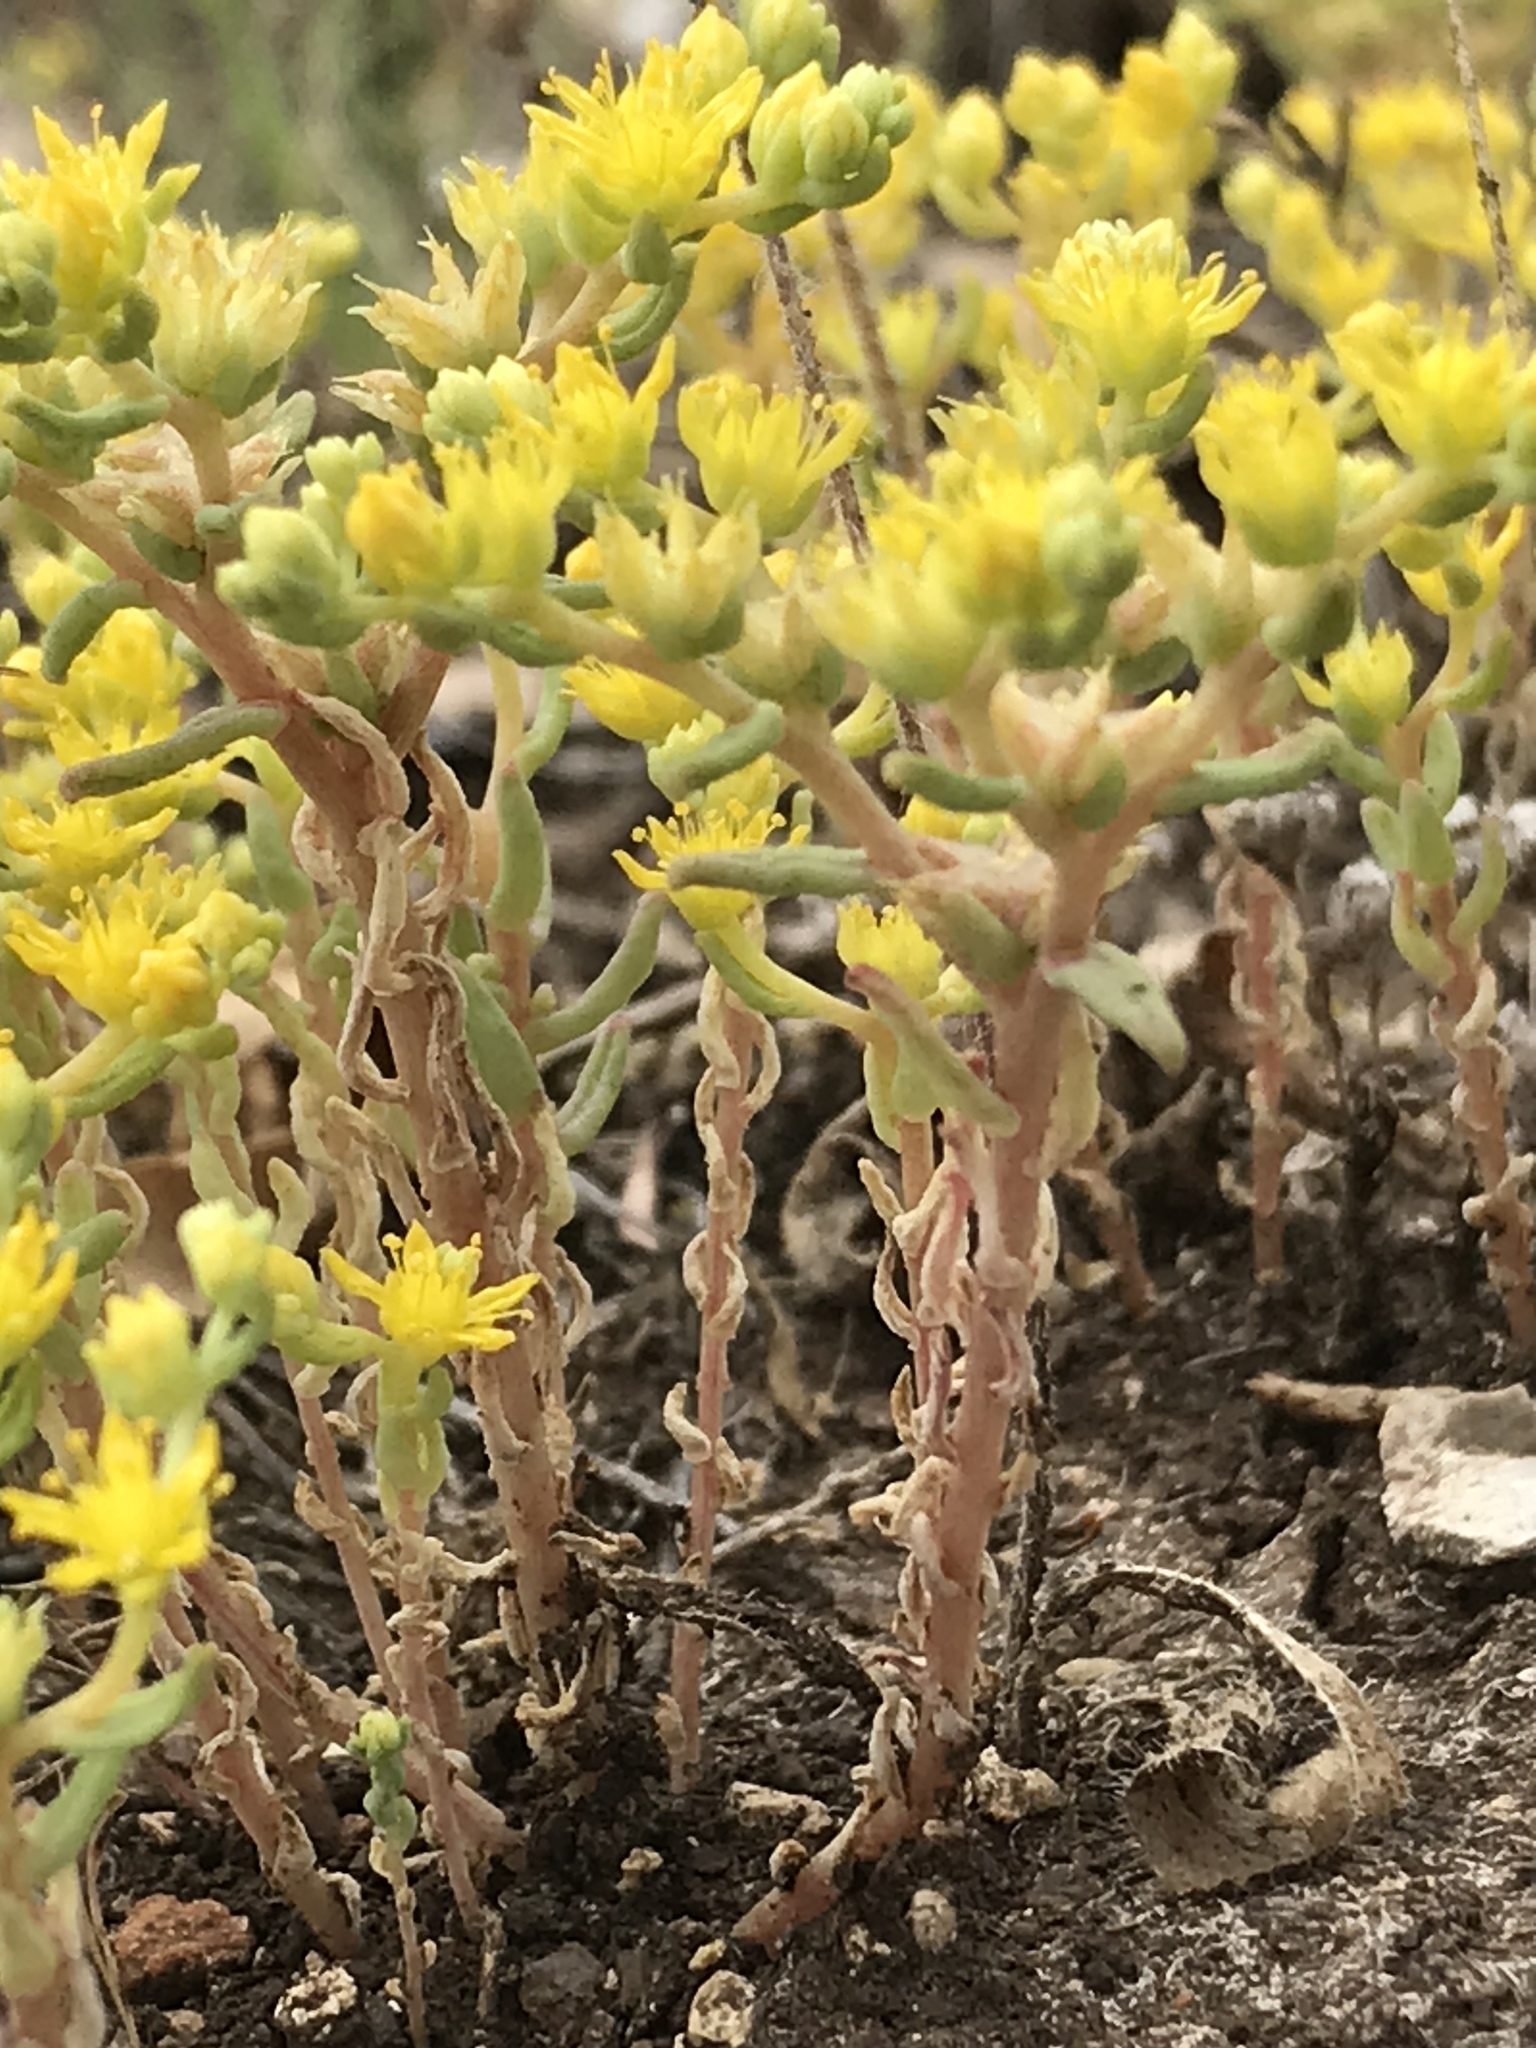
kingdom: Plantae
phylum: Tracheophyta
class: Magnoliopsida
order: Saxifragales
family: Crassulaceae
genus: Sedum
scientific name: Sedum nuttallii
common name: Yellow stonecrop
